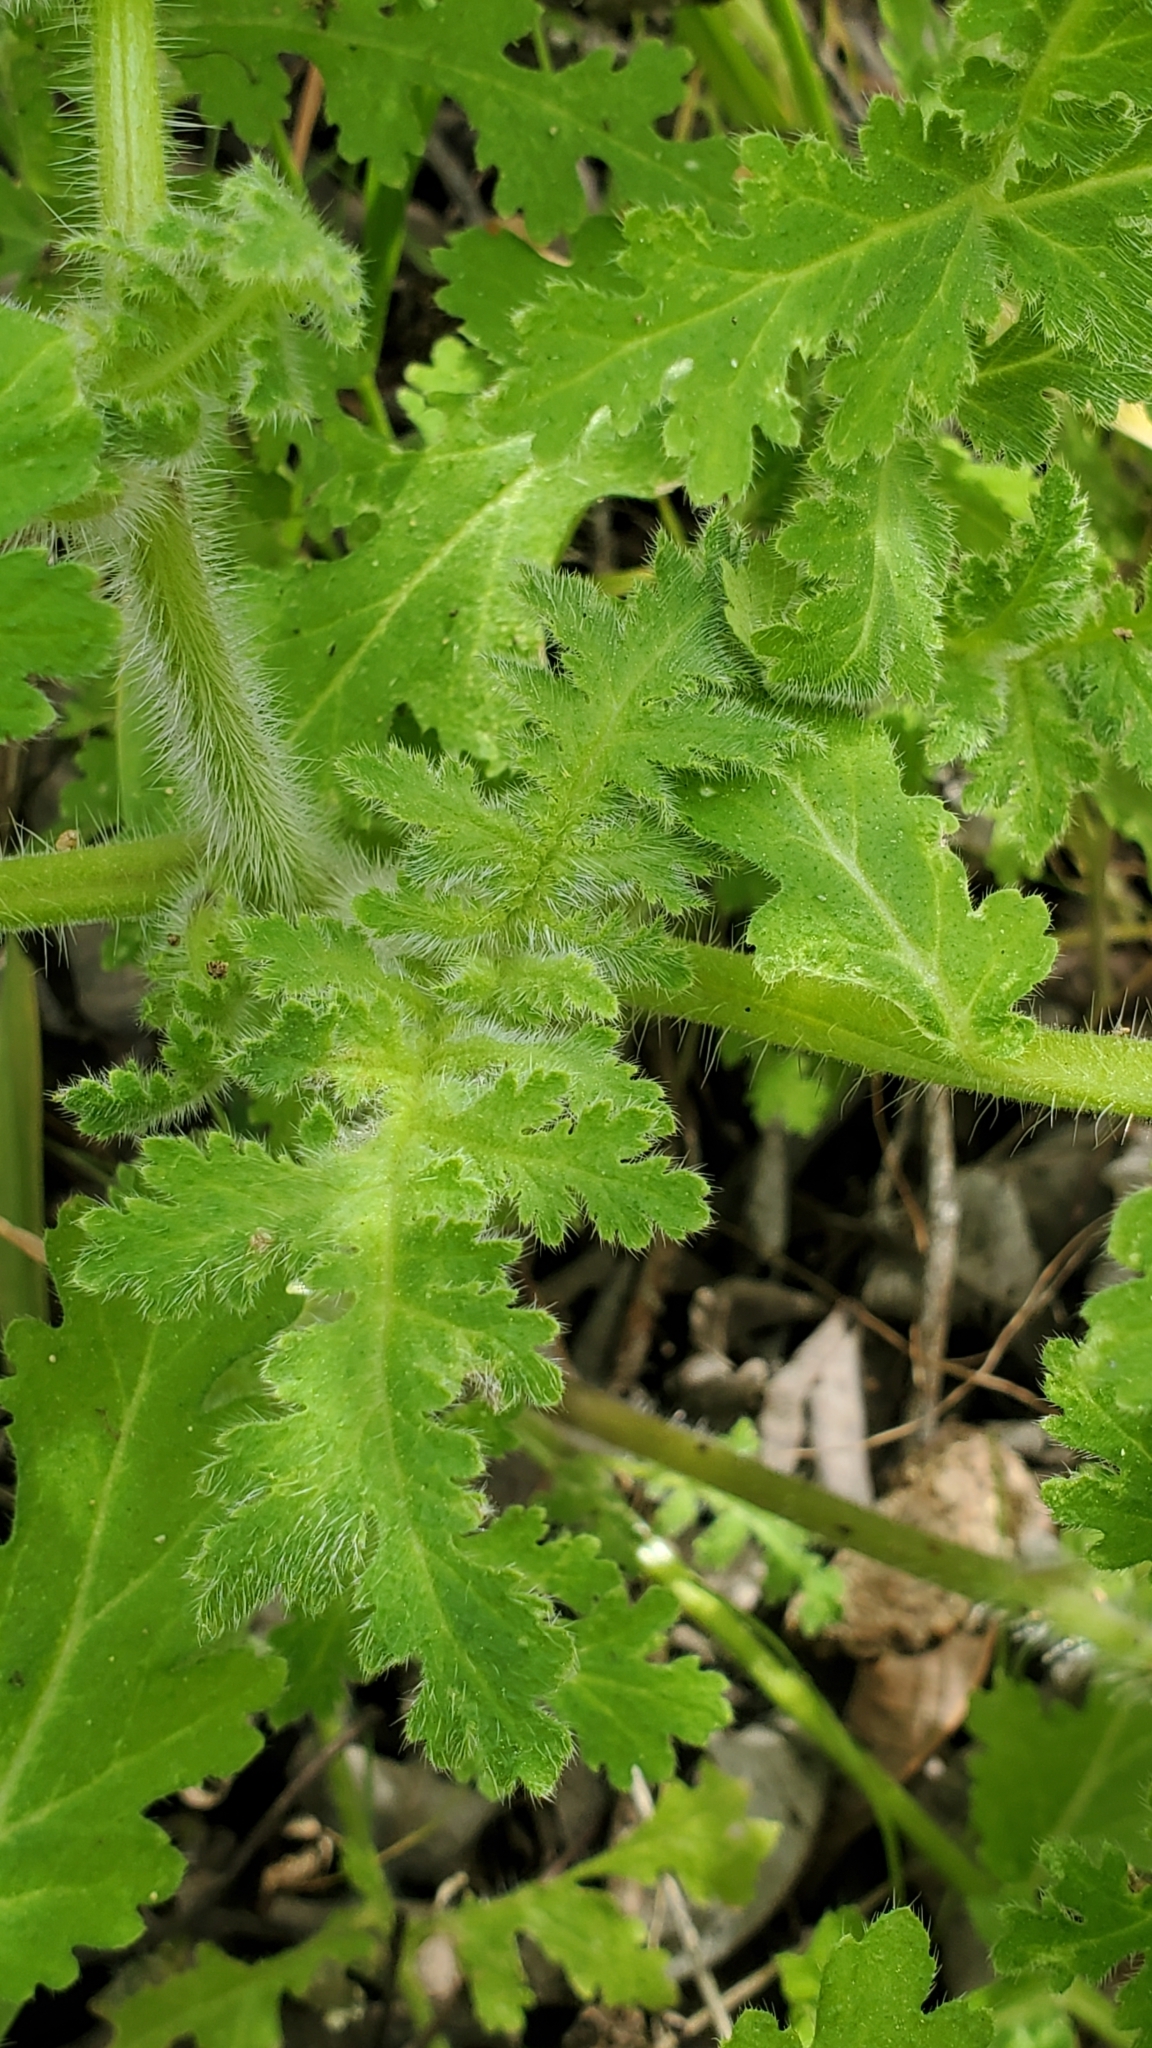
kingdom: Plantae
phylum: Tracheophyta
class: Magnoliopsida
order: Boraginales
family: Hydrophyllaceae
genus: Eucrypta
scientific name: Eucrypta chrysanthemifolia
